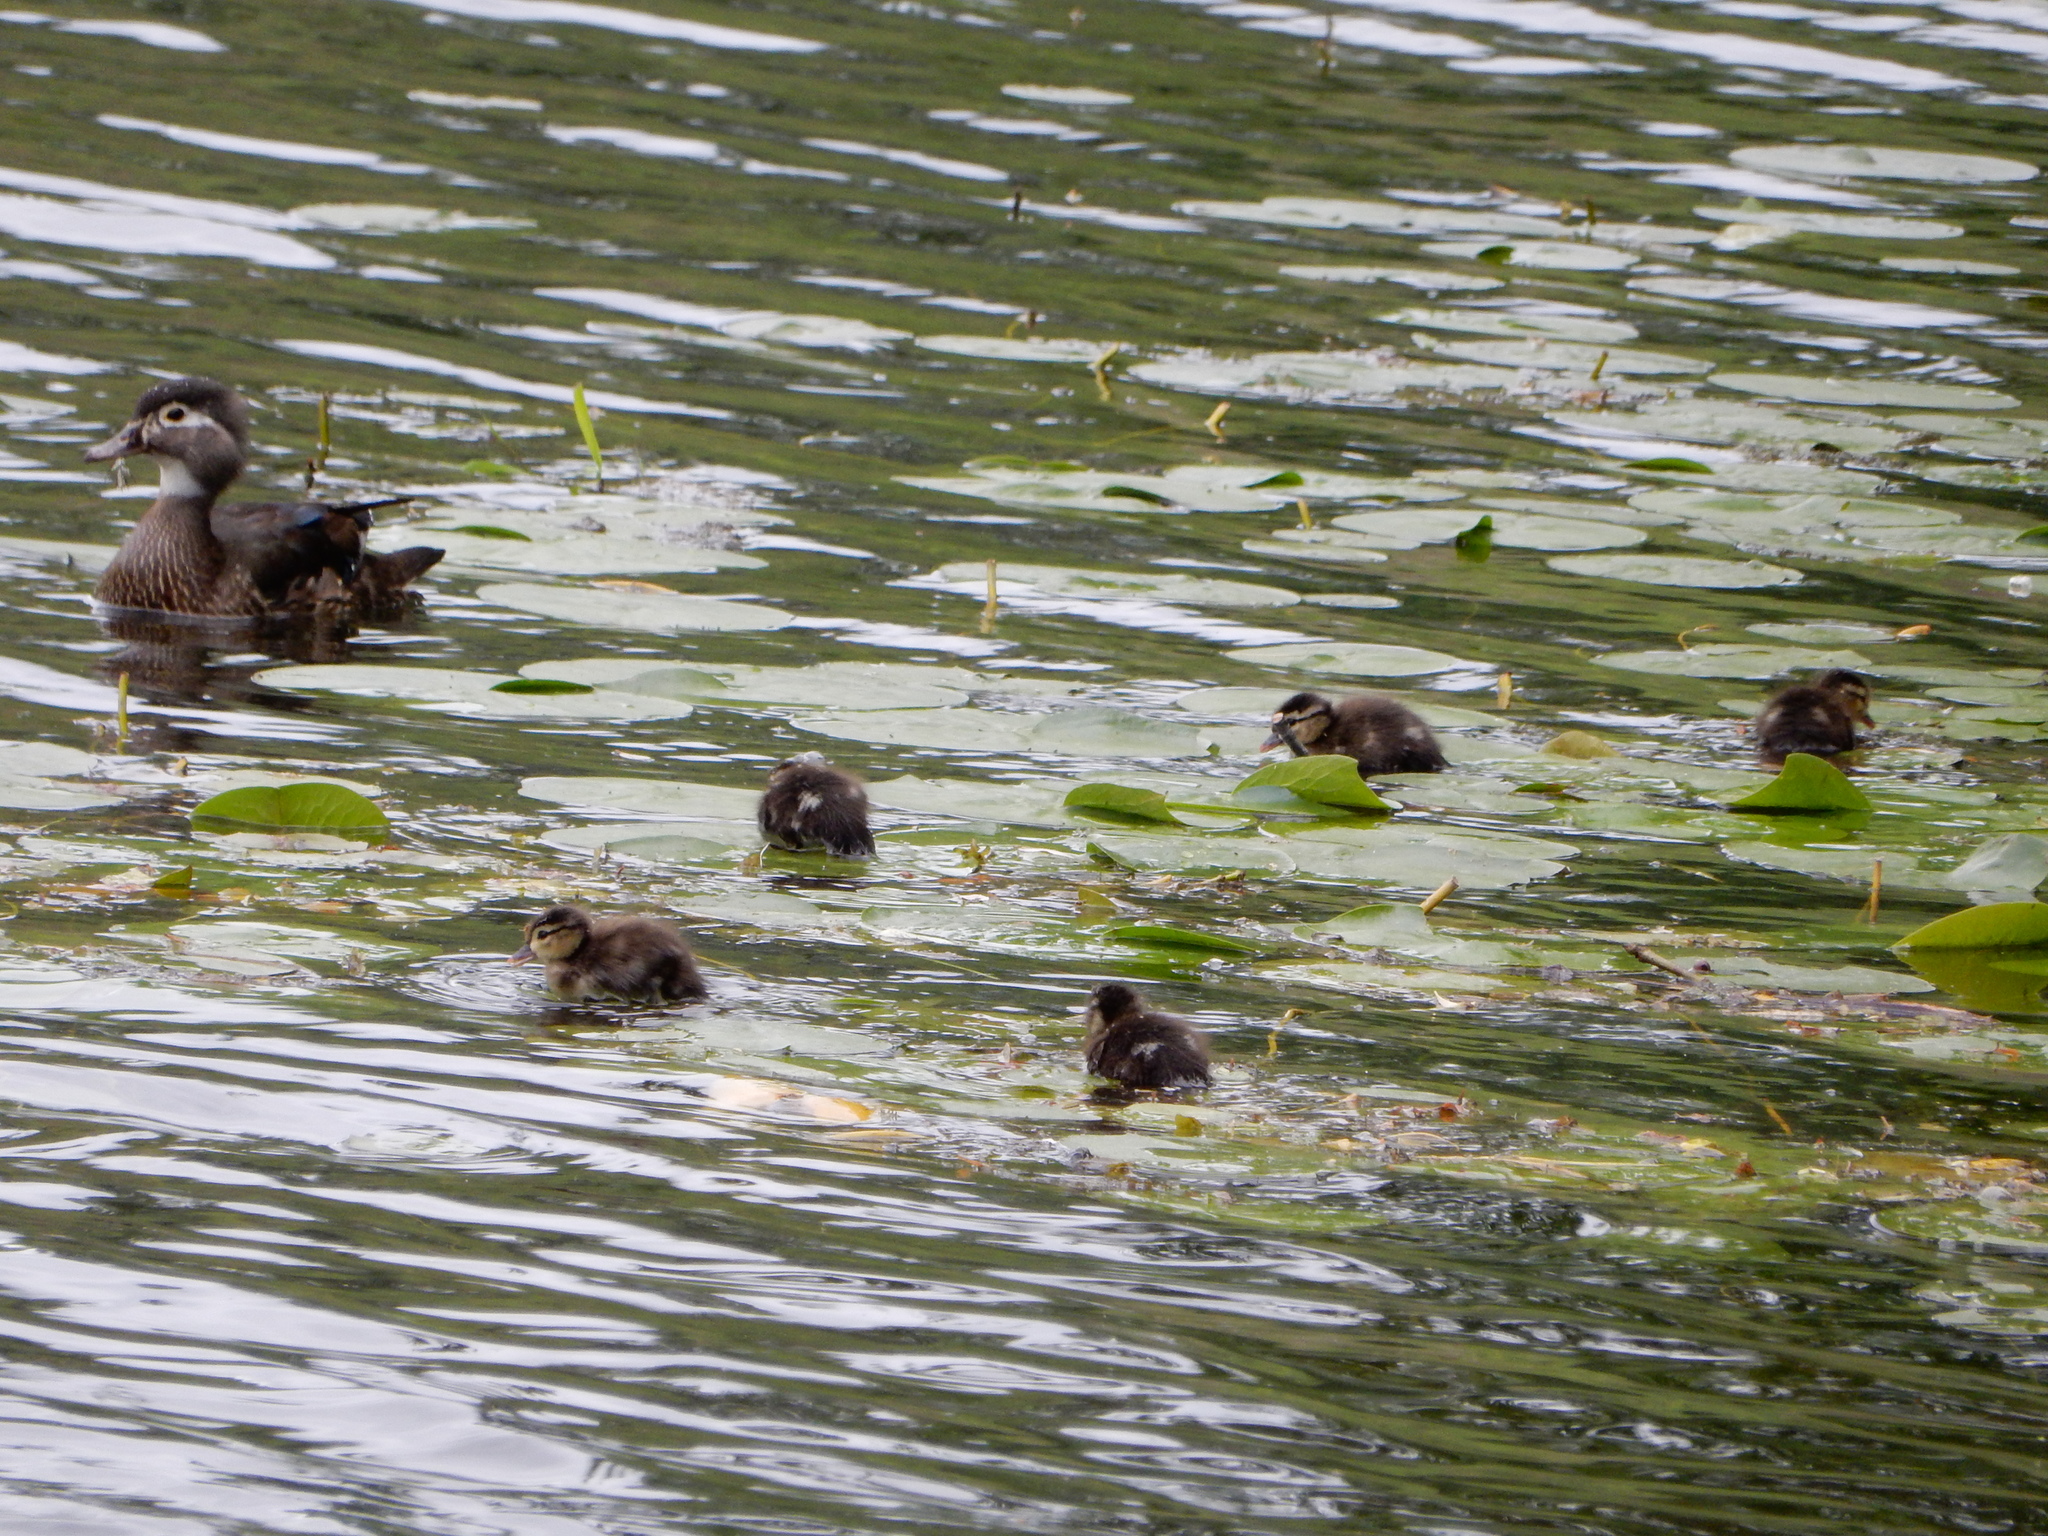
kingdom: Animalia
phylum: Chordata
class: Aves
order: Anseriformes
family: Anatidae
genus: Aix
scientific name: Aix sponsa
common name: Wood duck
